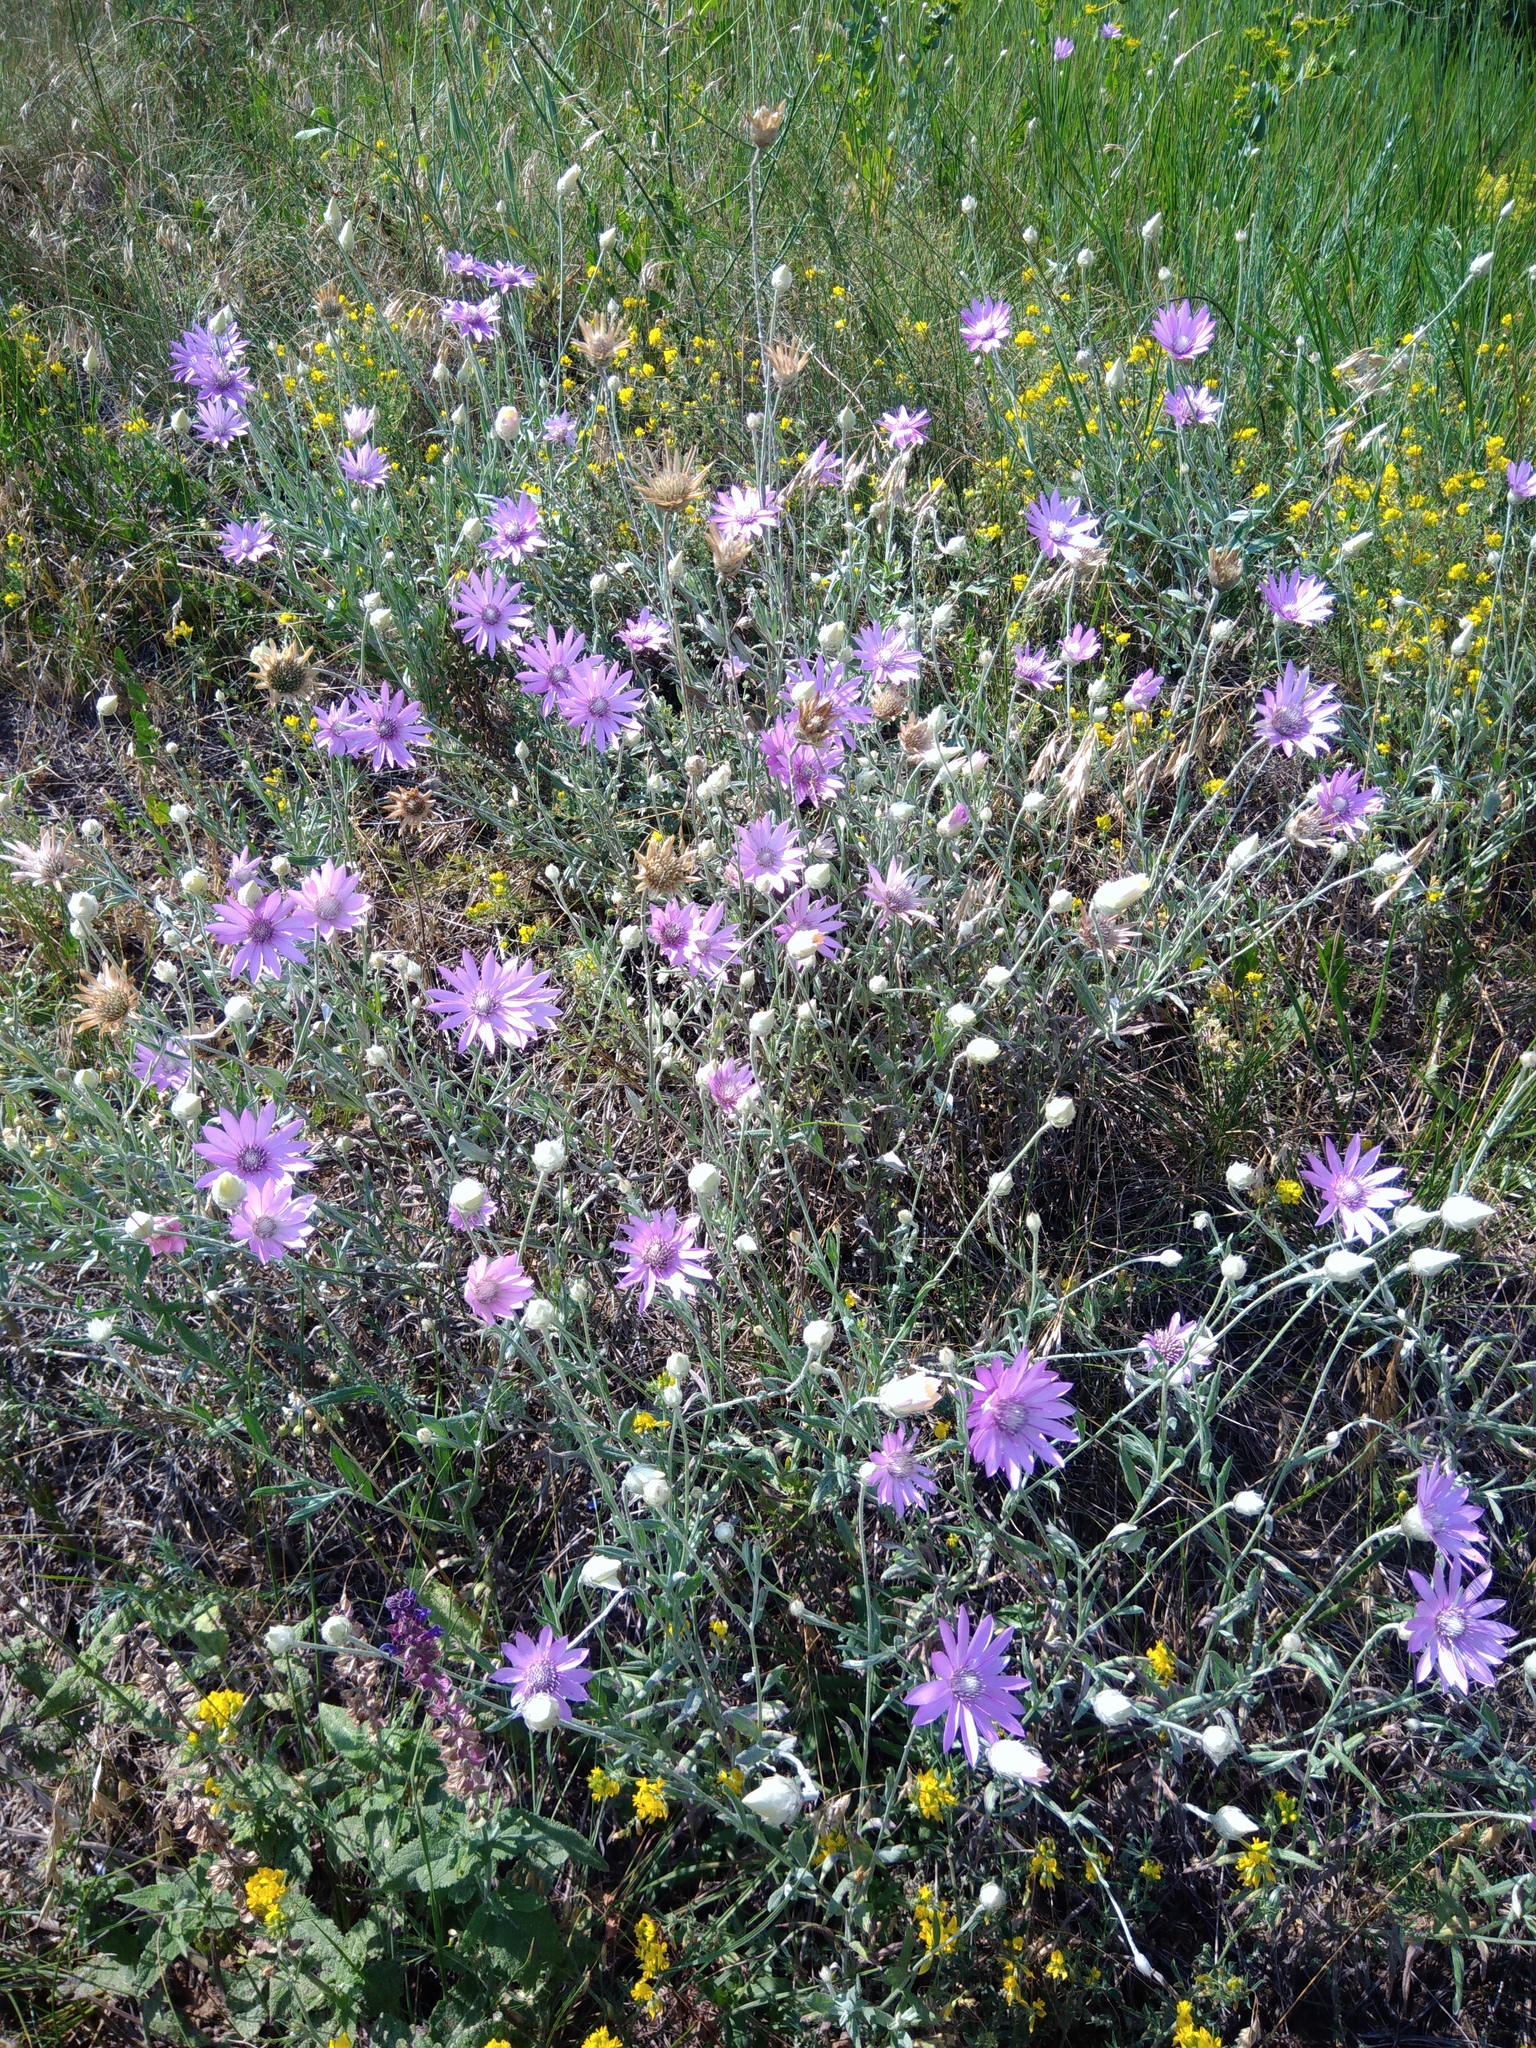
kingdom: Plantae
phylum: Tracheophyta
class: Magnoliopsida
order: Asterales
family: Asteraceae
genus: Xeranthemum
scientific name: Xeranthemum annuum
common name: Immortelle
